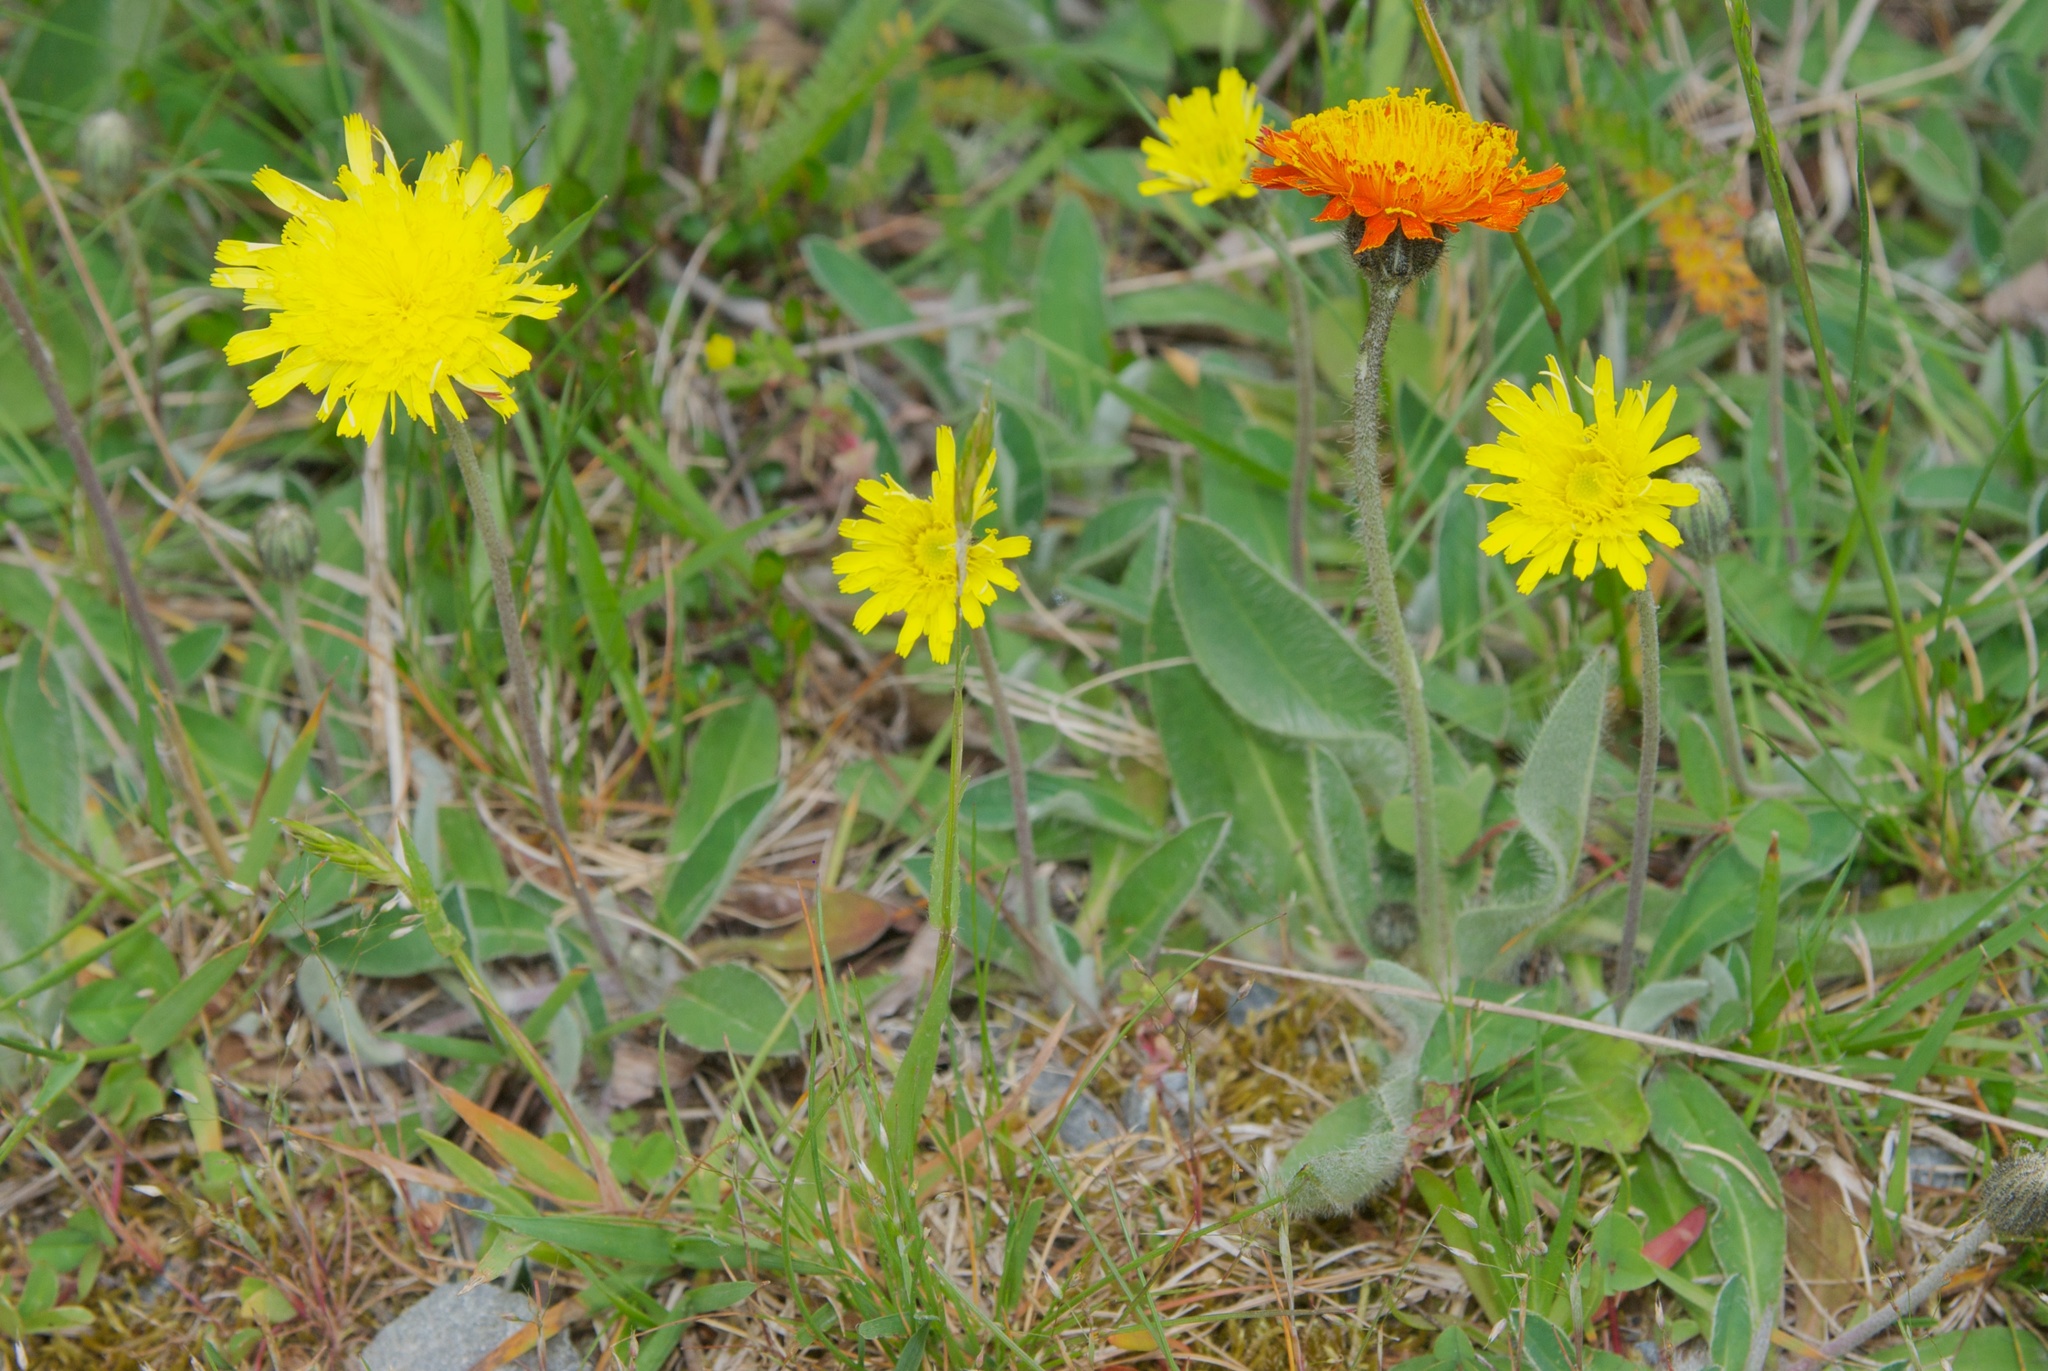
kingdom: Plantae
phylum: Tracheophyta
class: Magnoliopsida
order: Asterales
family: Asteraceae
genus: Pilosella
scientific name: Pilosella officinarum
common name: Mouse-ear hawkweed
